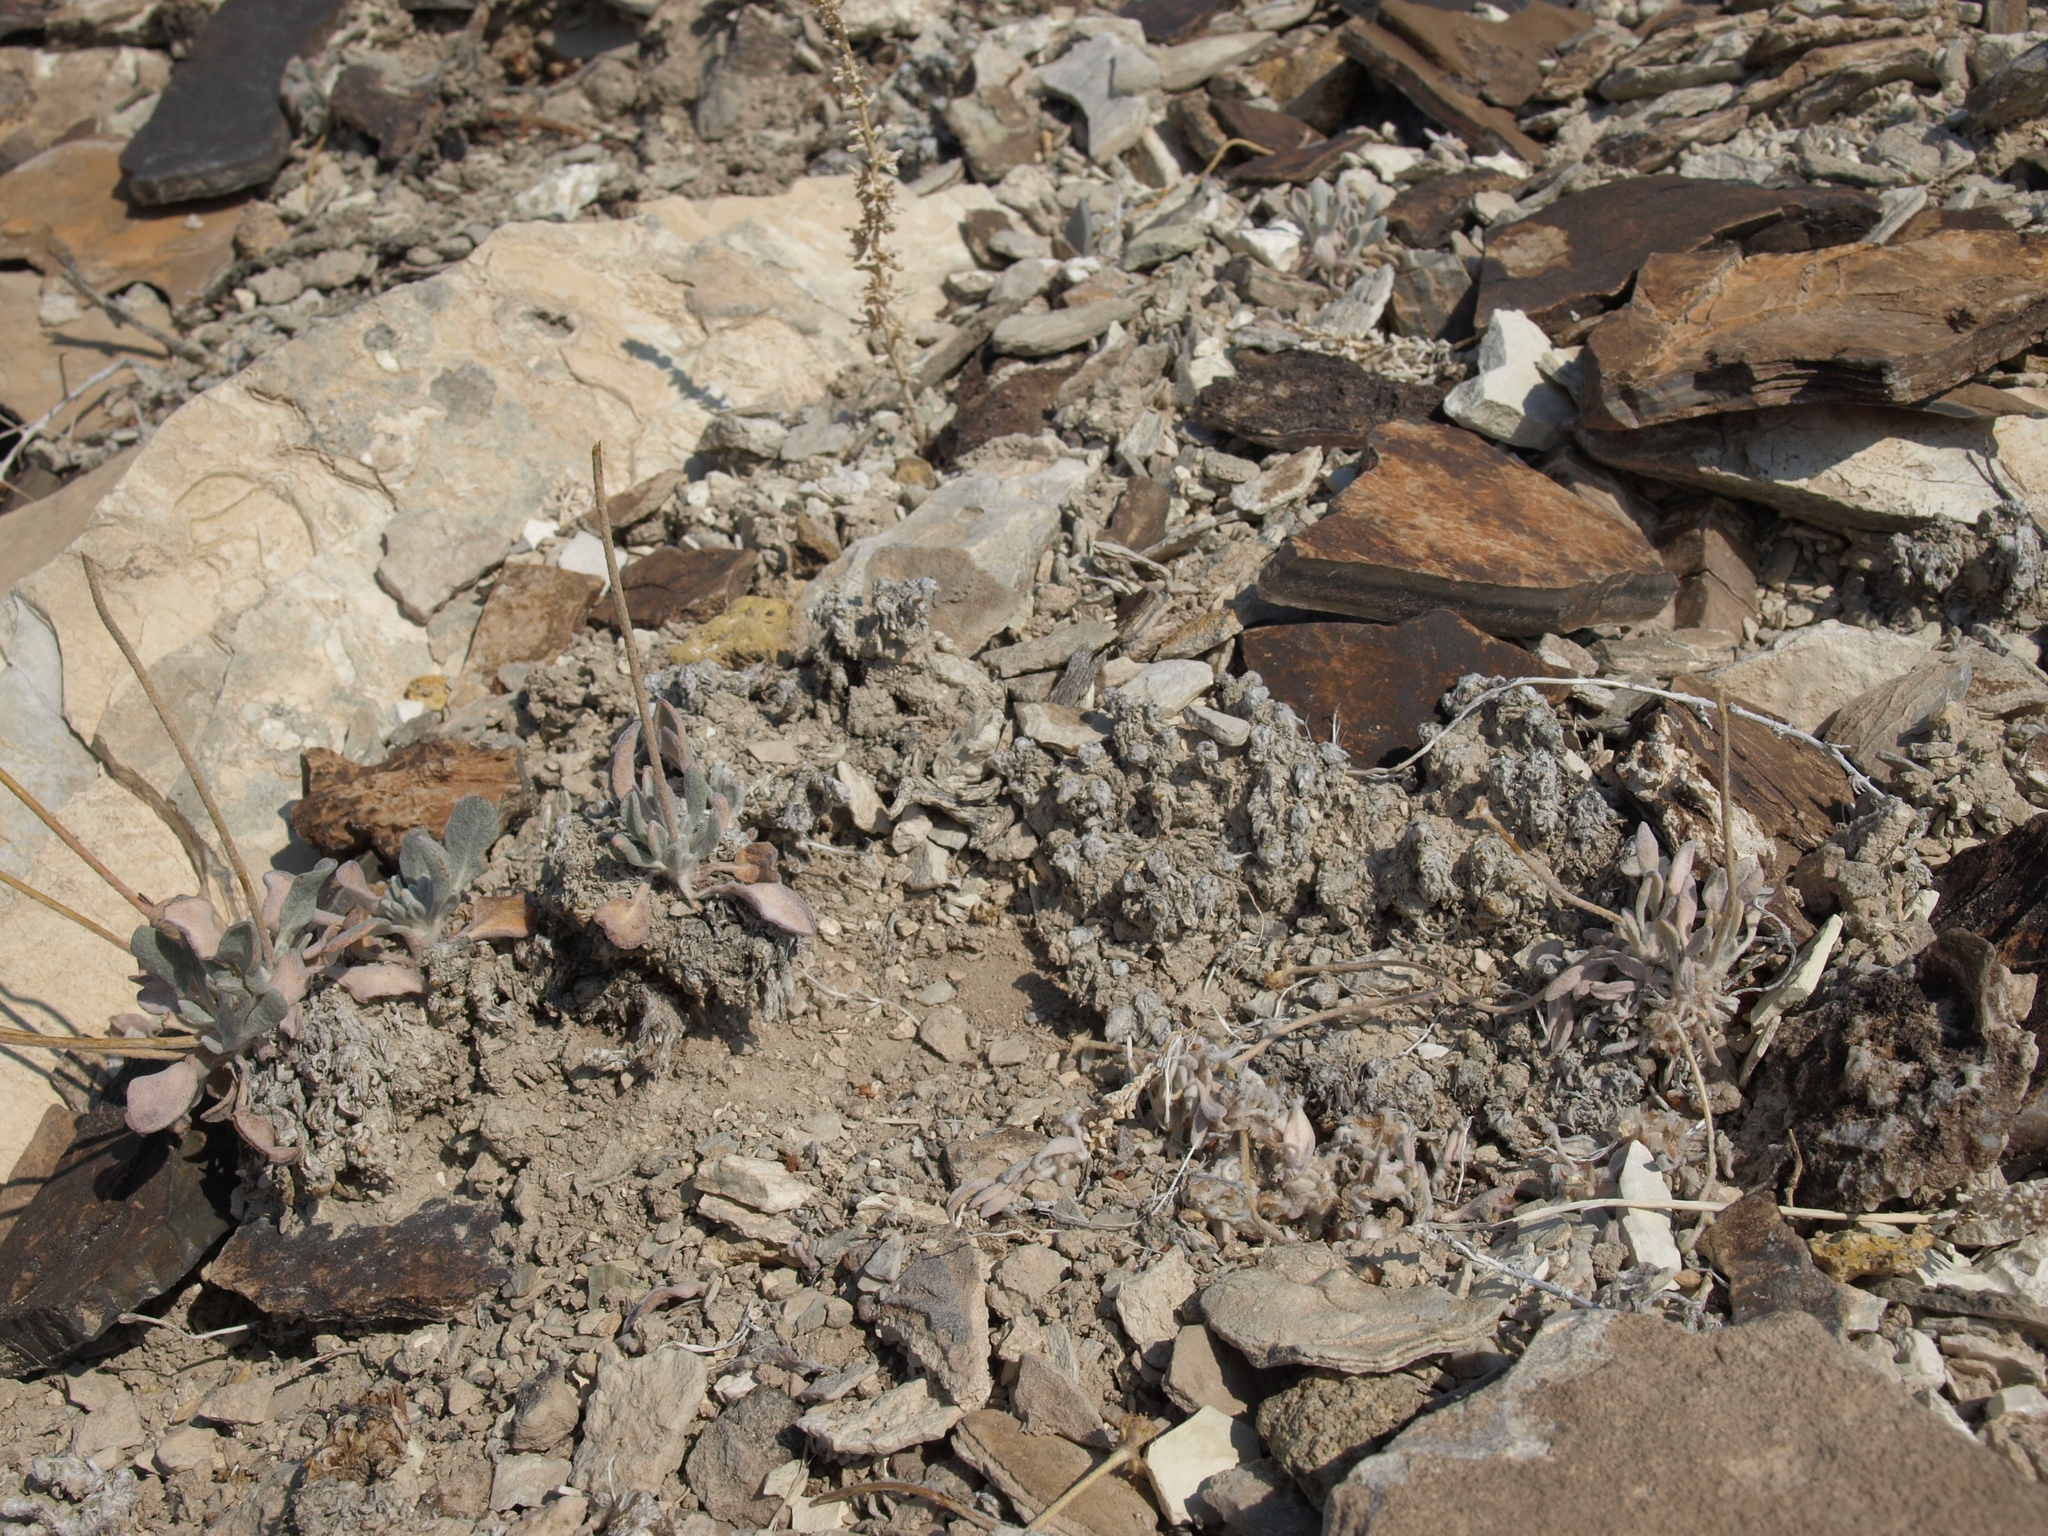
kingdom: Plantae
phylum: Tracheophyta
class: Magnoliopsida
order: Caryophyllales
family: Polygonaceae
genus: Eriogonum
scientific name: Eriogonum tiehmii
